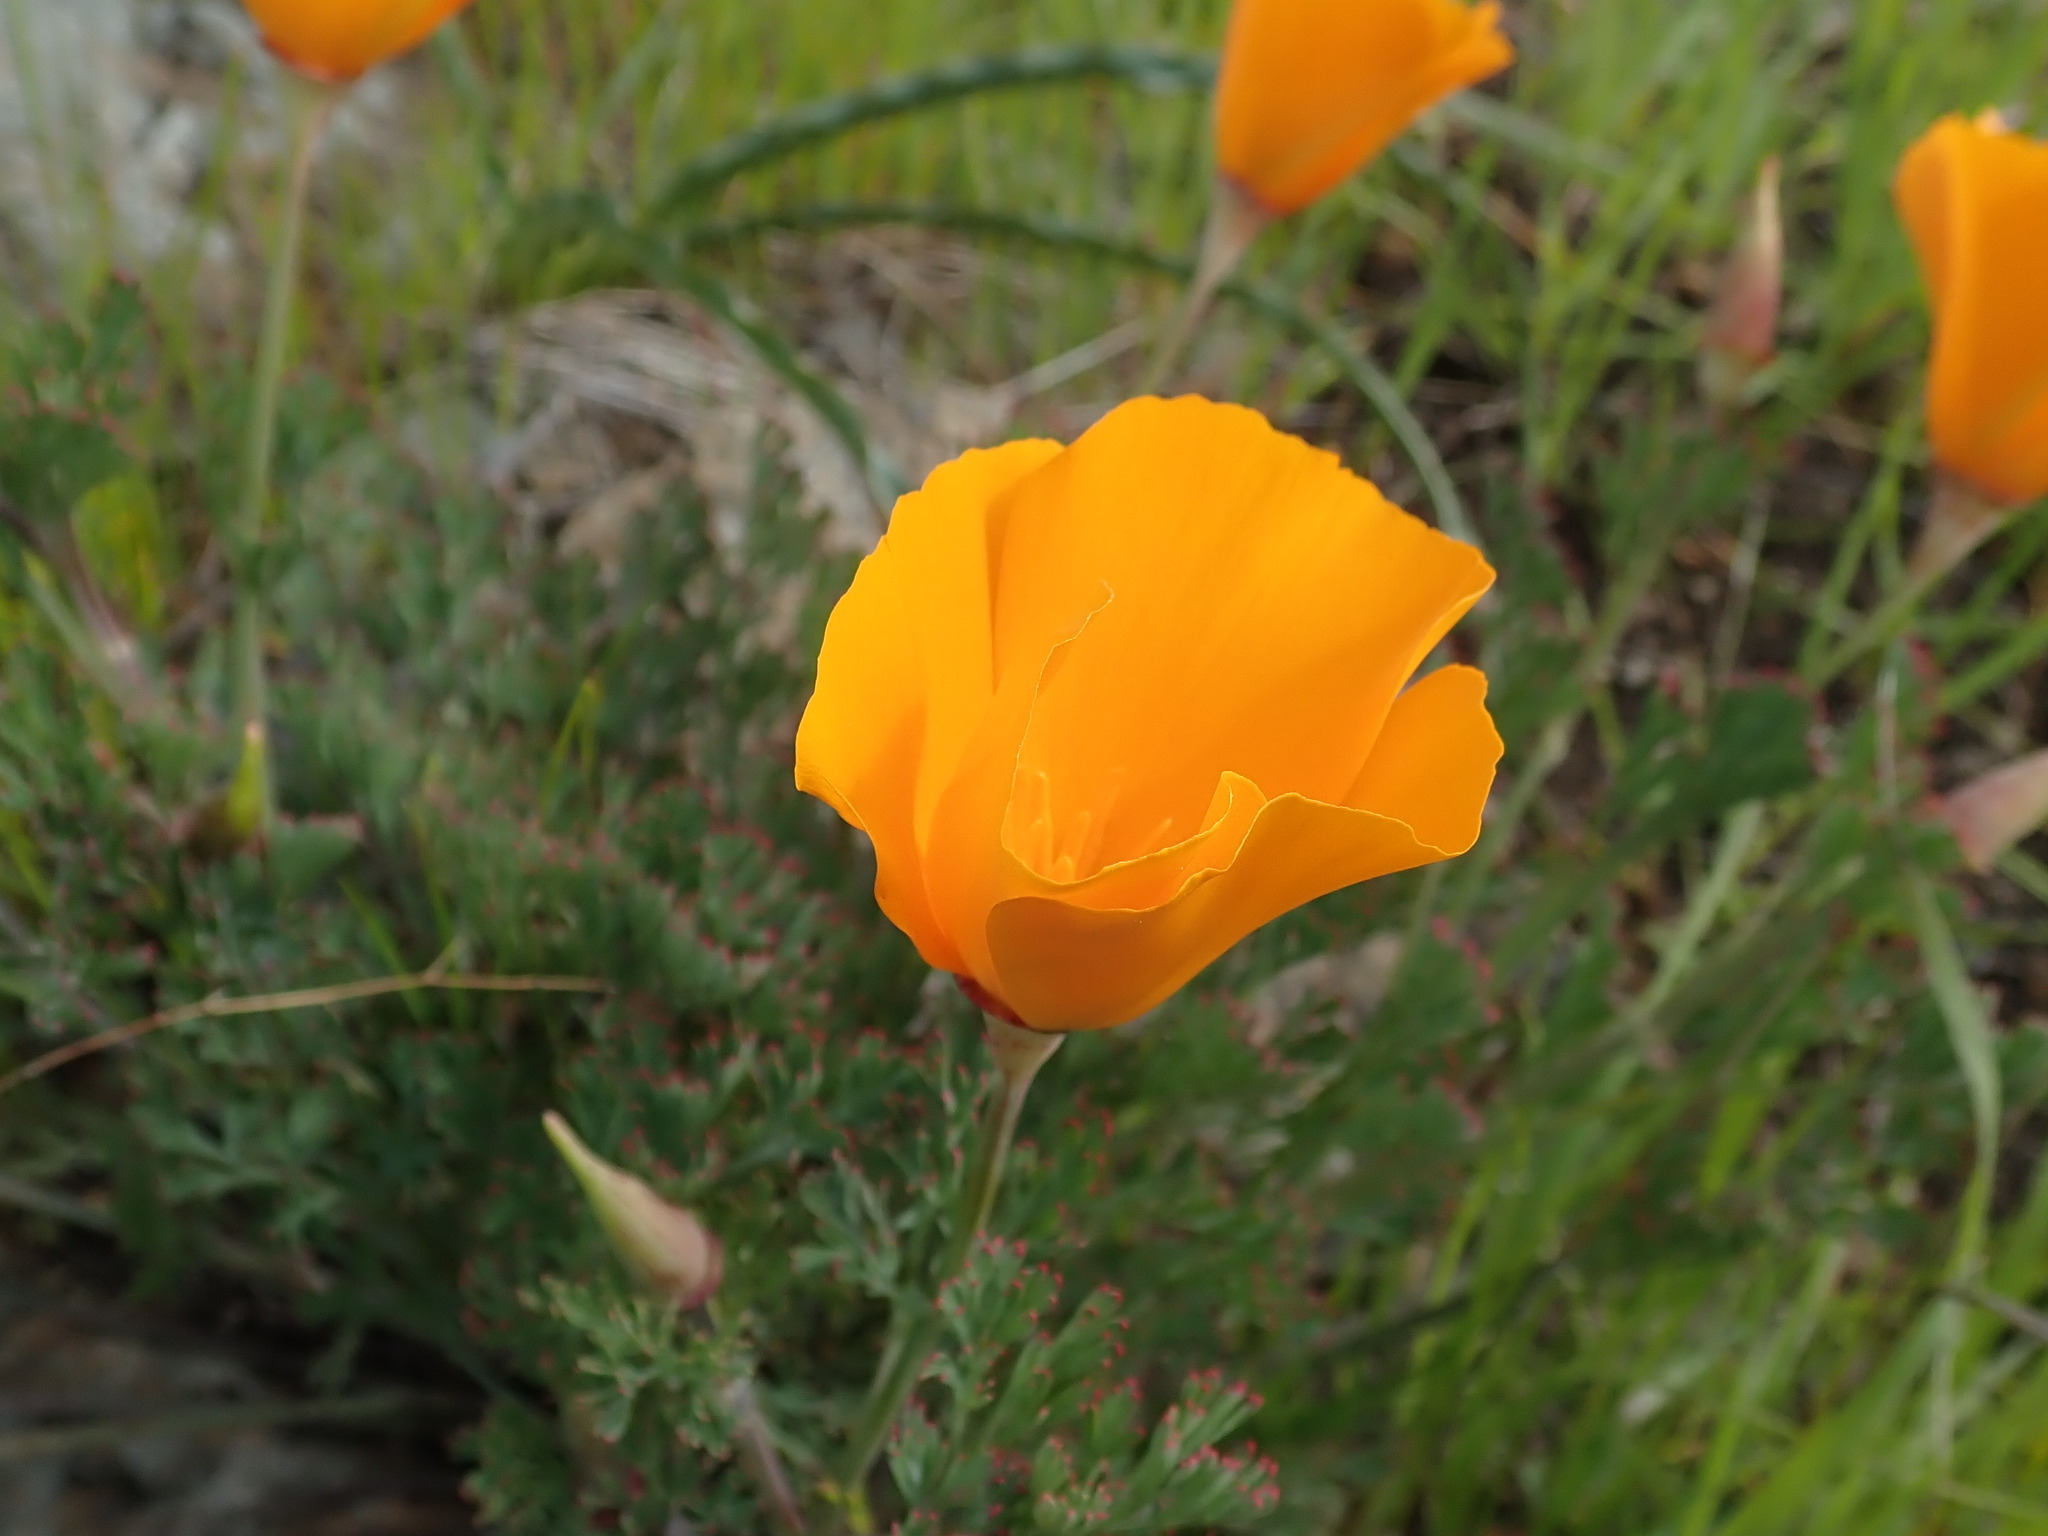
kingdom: Plantae
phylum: Tracheophyta
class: Magnoliopsida
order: Ranunculales
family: Papaveraceae
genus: Eschscholzia
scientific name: Eschscholzia californica
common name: California poppy
